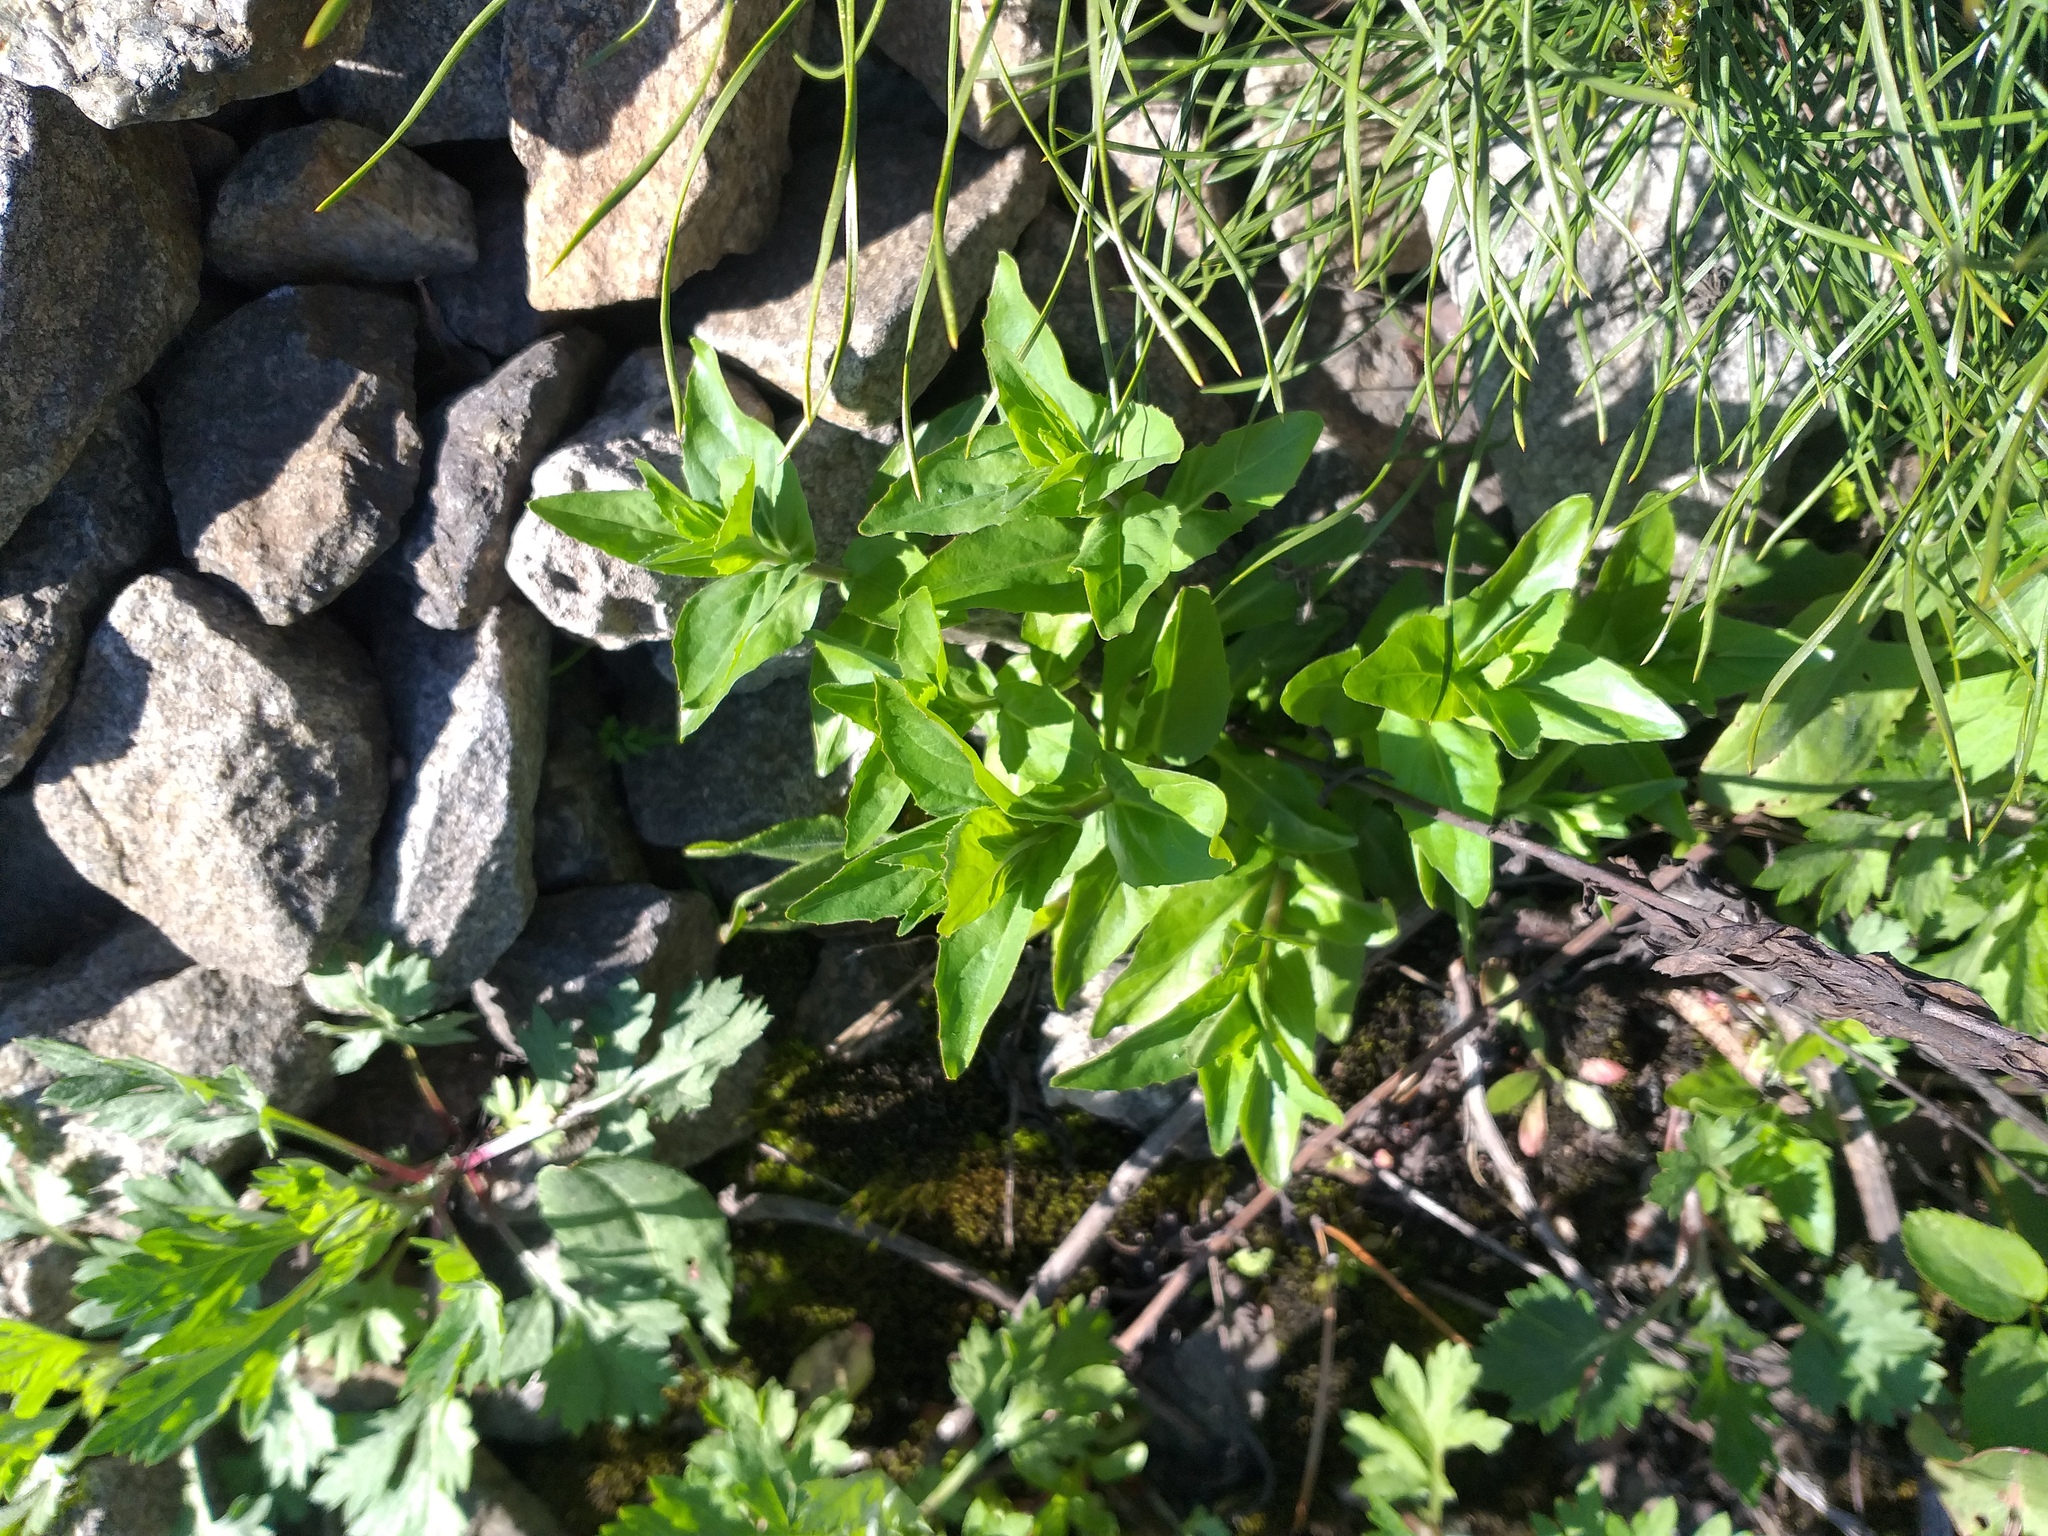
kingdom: Plantae
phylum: Tracheophyta
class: Magnoliopsida
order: Myrtales
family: Onagraceae
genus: Epilobium
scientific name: Epilobium montanum
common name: Broad-leaved willowherb
